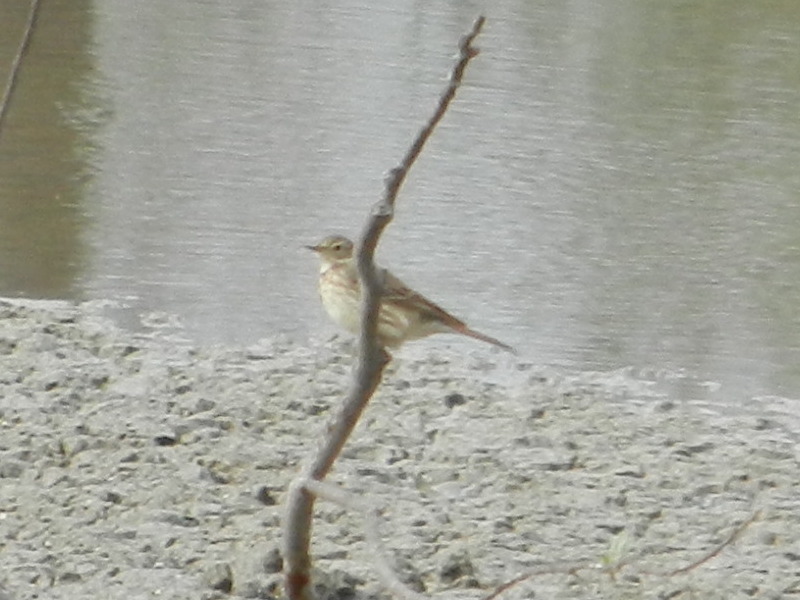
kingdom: Animalia
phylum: Chordata
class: Aves
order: Passeriformes
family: Motacillidae
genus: Anthus
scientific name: Anthus rubescens
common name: Buff-bellied pipit
